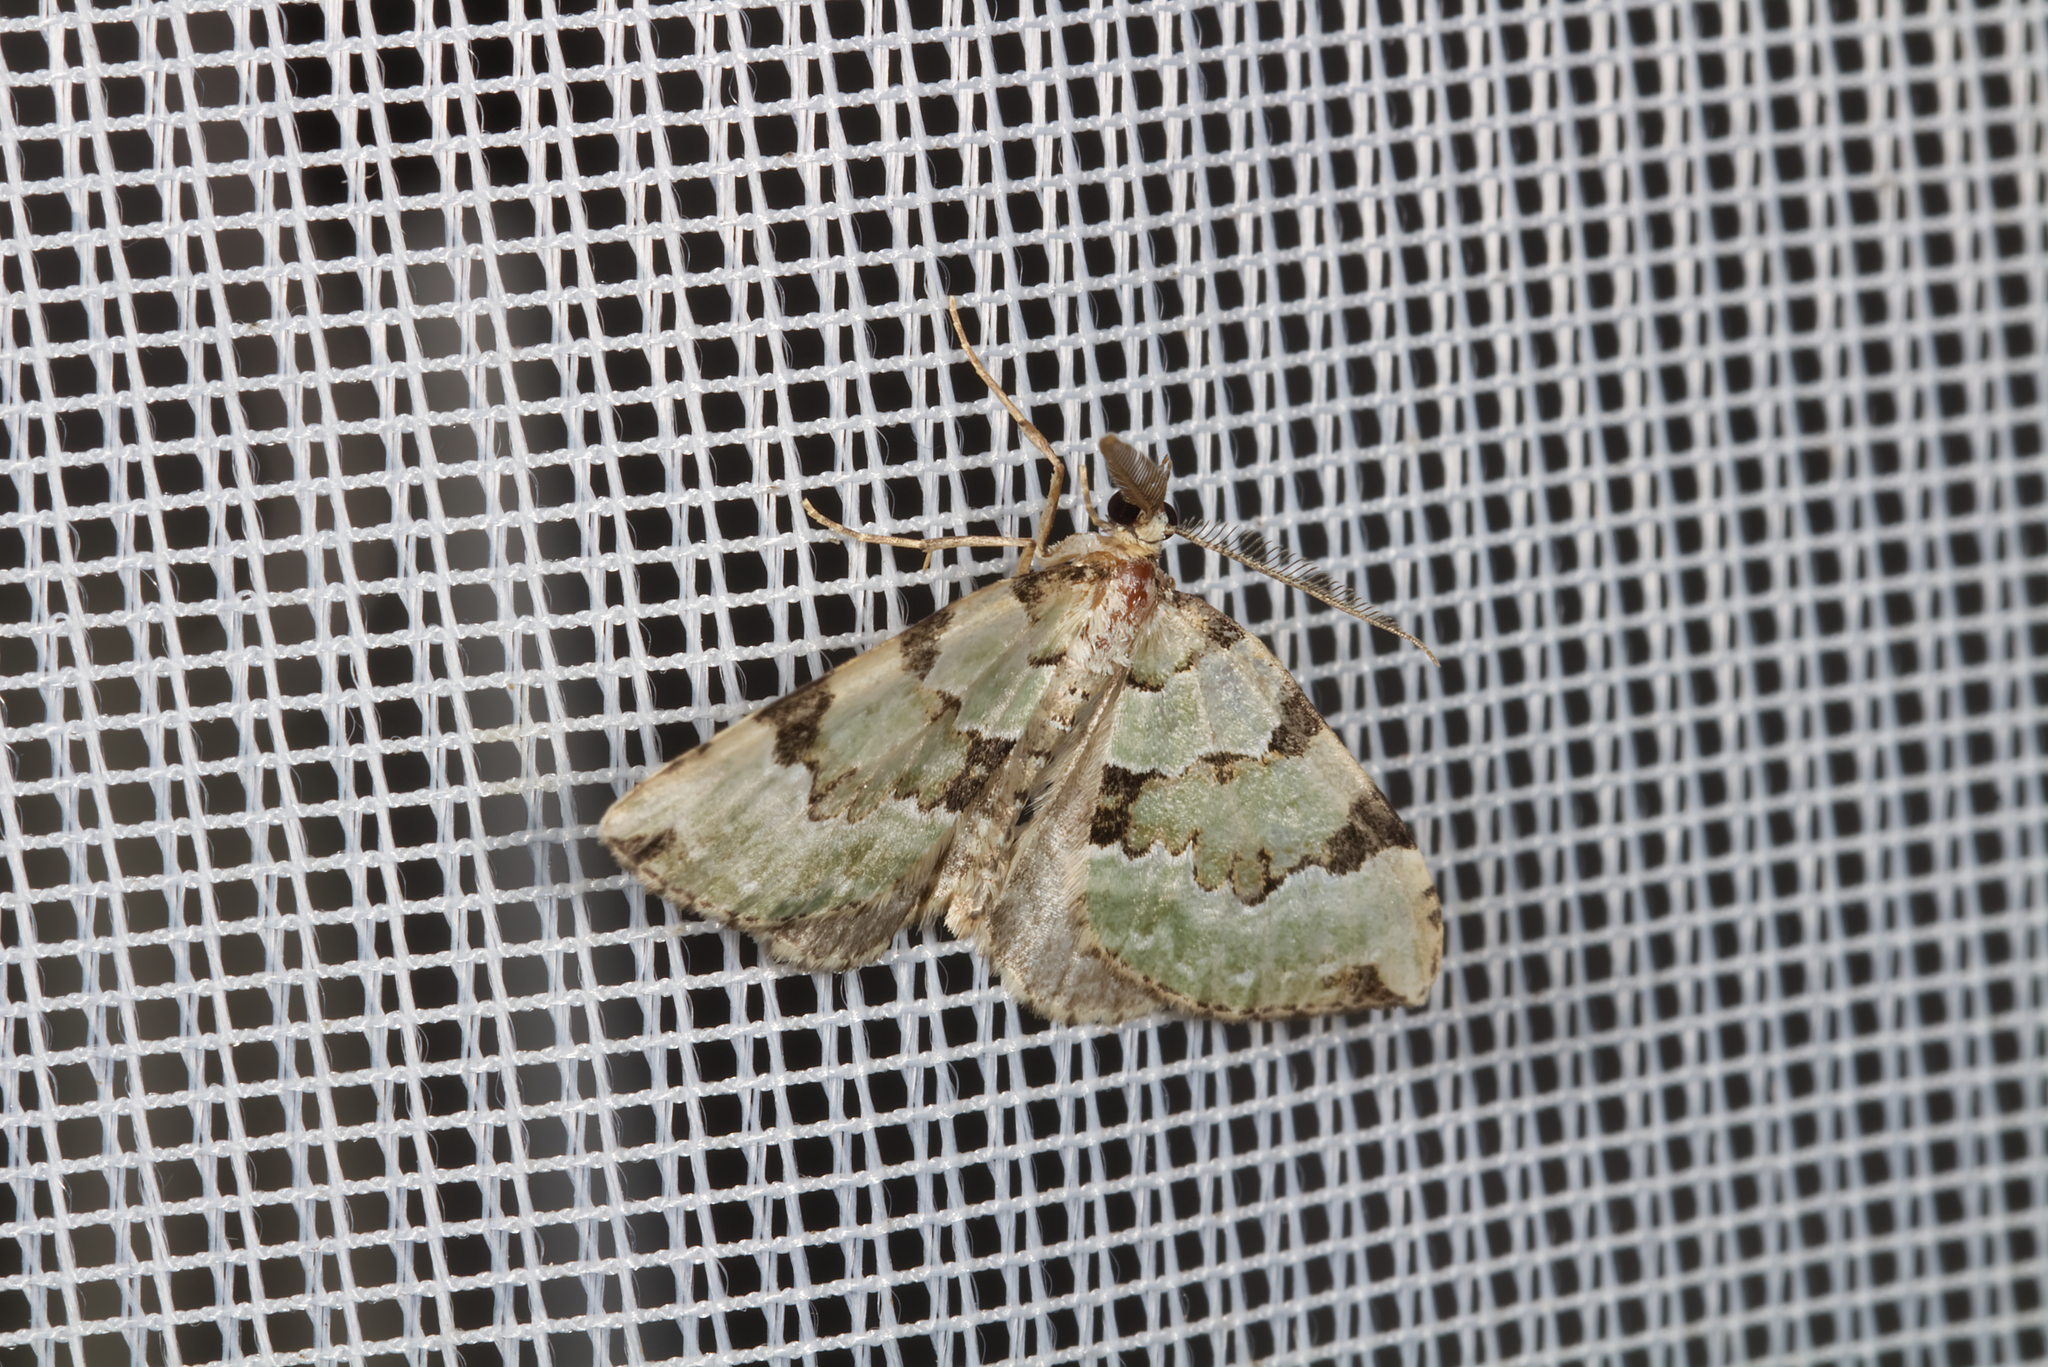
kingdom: Animalia
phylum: Arthropoda
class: Insecta
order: Lepidoptera
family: Geometridae
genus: Colostygia
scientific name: Colostygia pectinataria
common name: Green carpet
